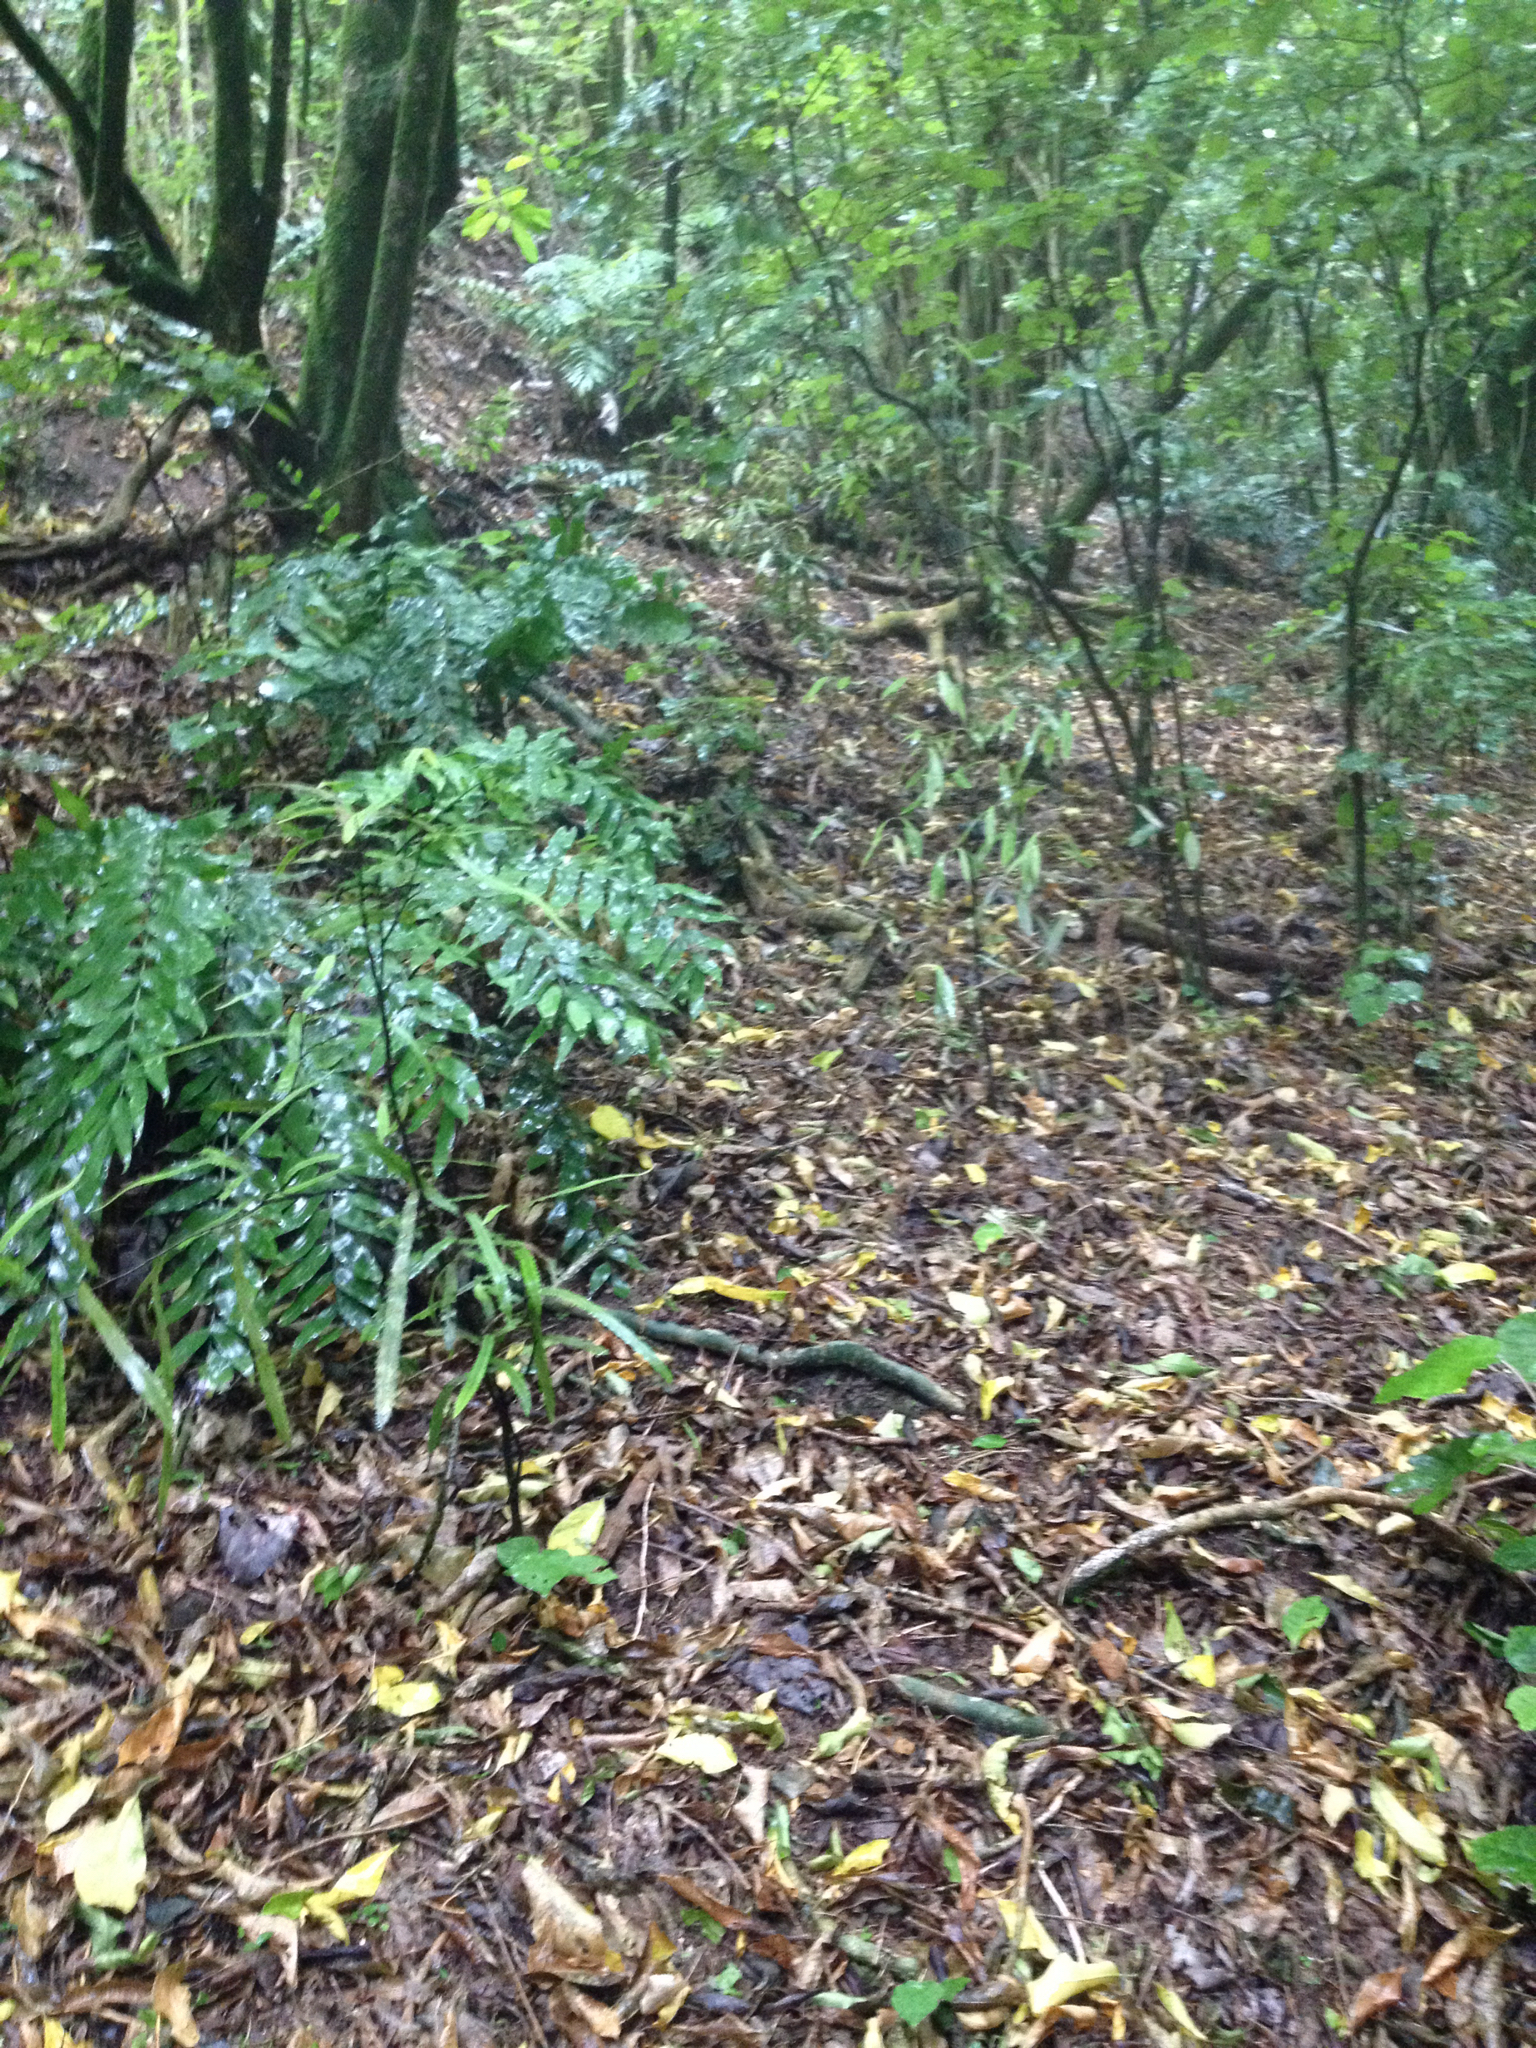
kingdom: Plantae
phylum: Tracheophyta
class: Magnoliopsida
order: Laurales
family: Lauraceae
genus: Beilschmiedia
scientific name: Beilschmiedia tawa
